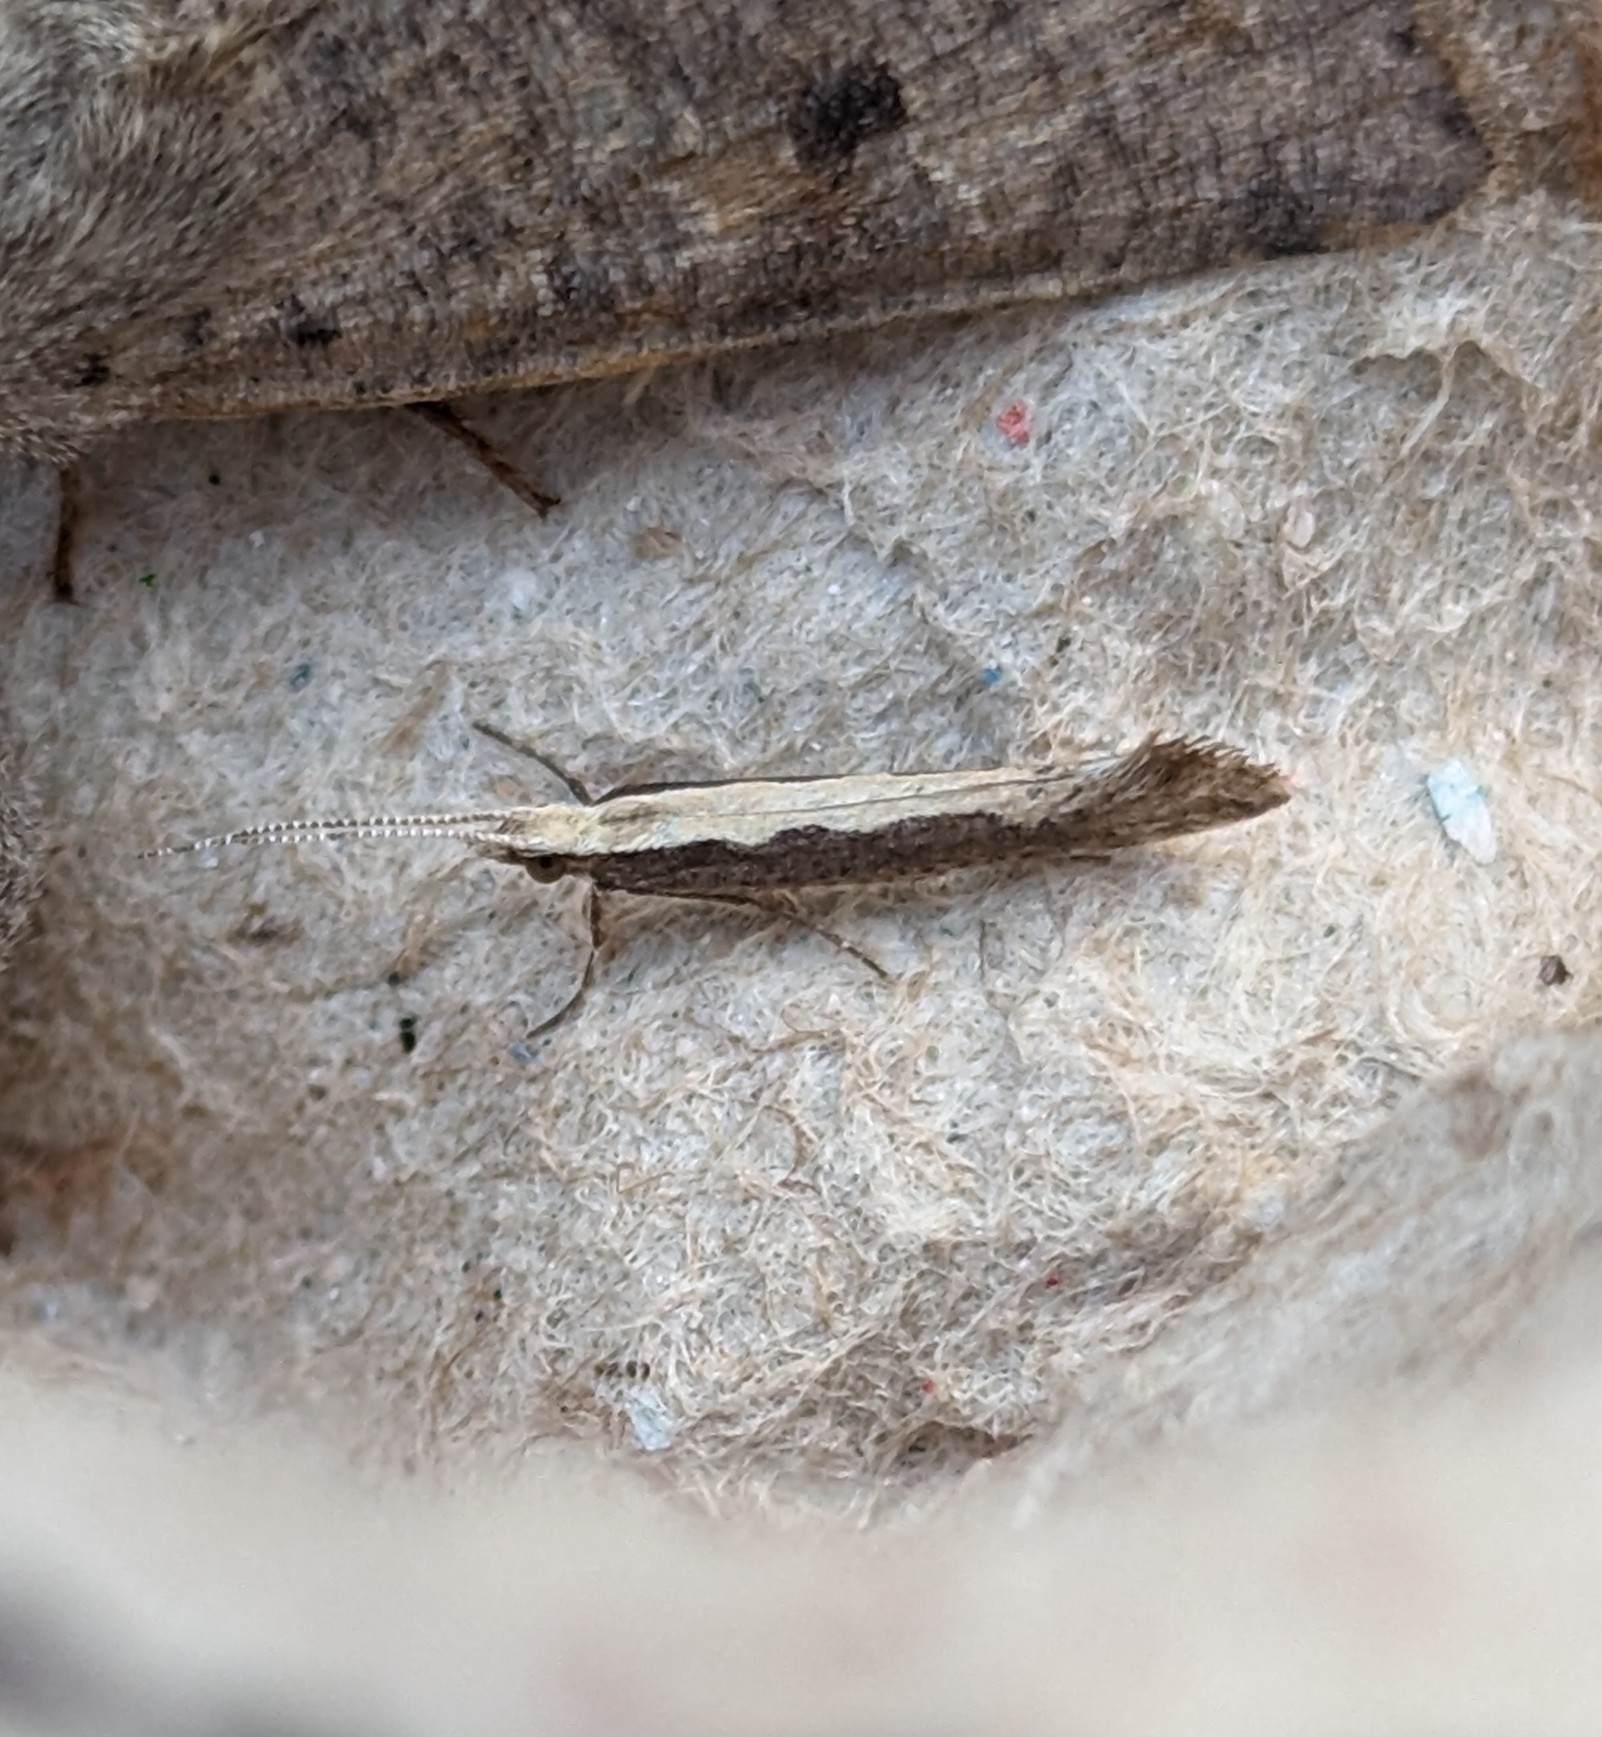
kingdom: Animalia
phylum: Arthropoda
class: Insecta
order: Lepidoptera
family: Plutellidae
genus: Plutella
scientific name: Plutella xylostella
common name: Diamond-back moth
